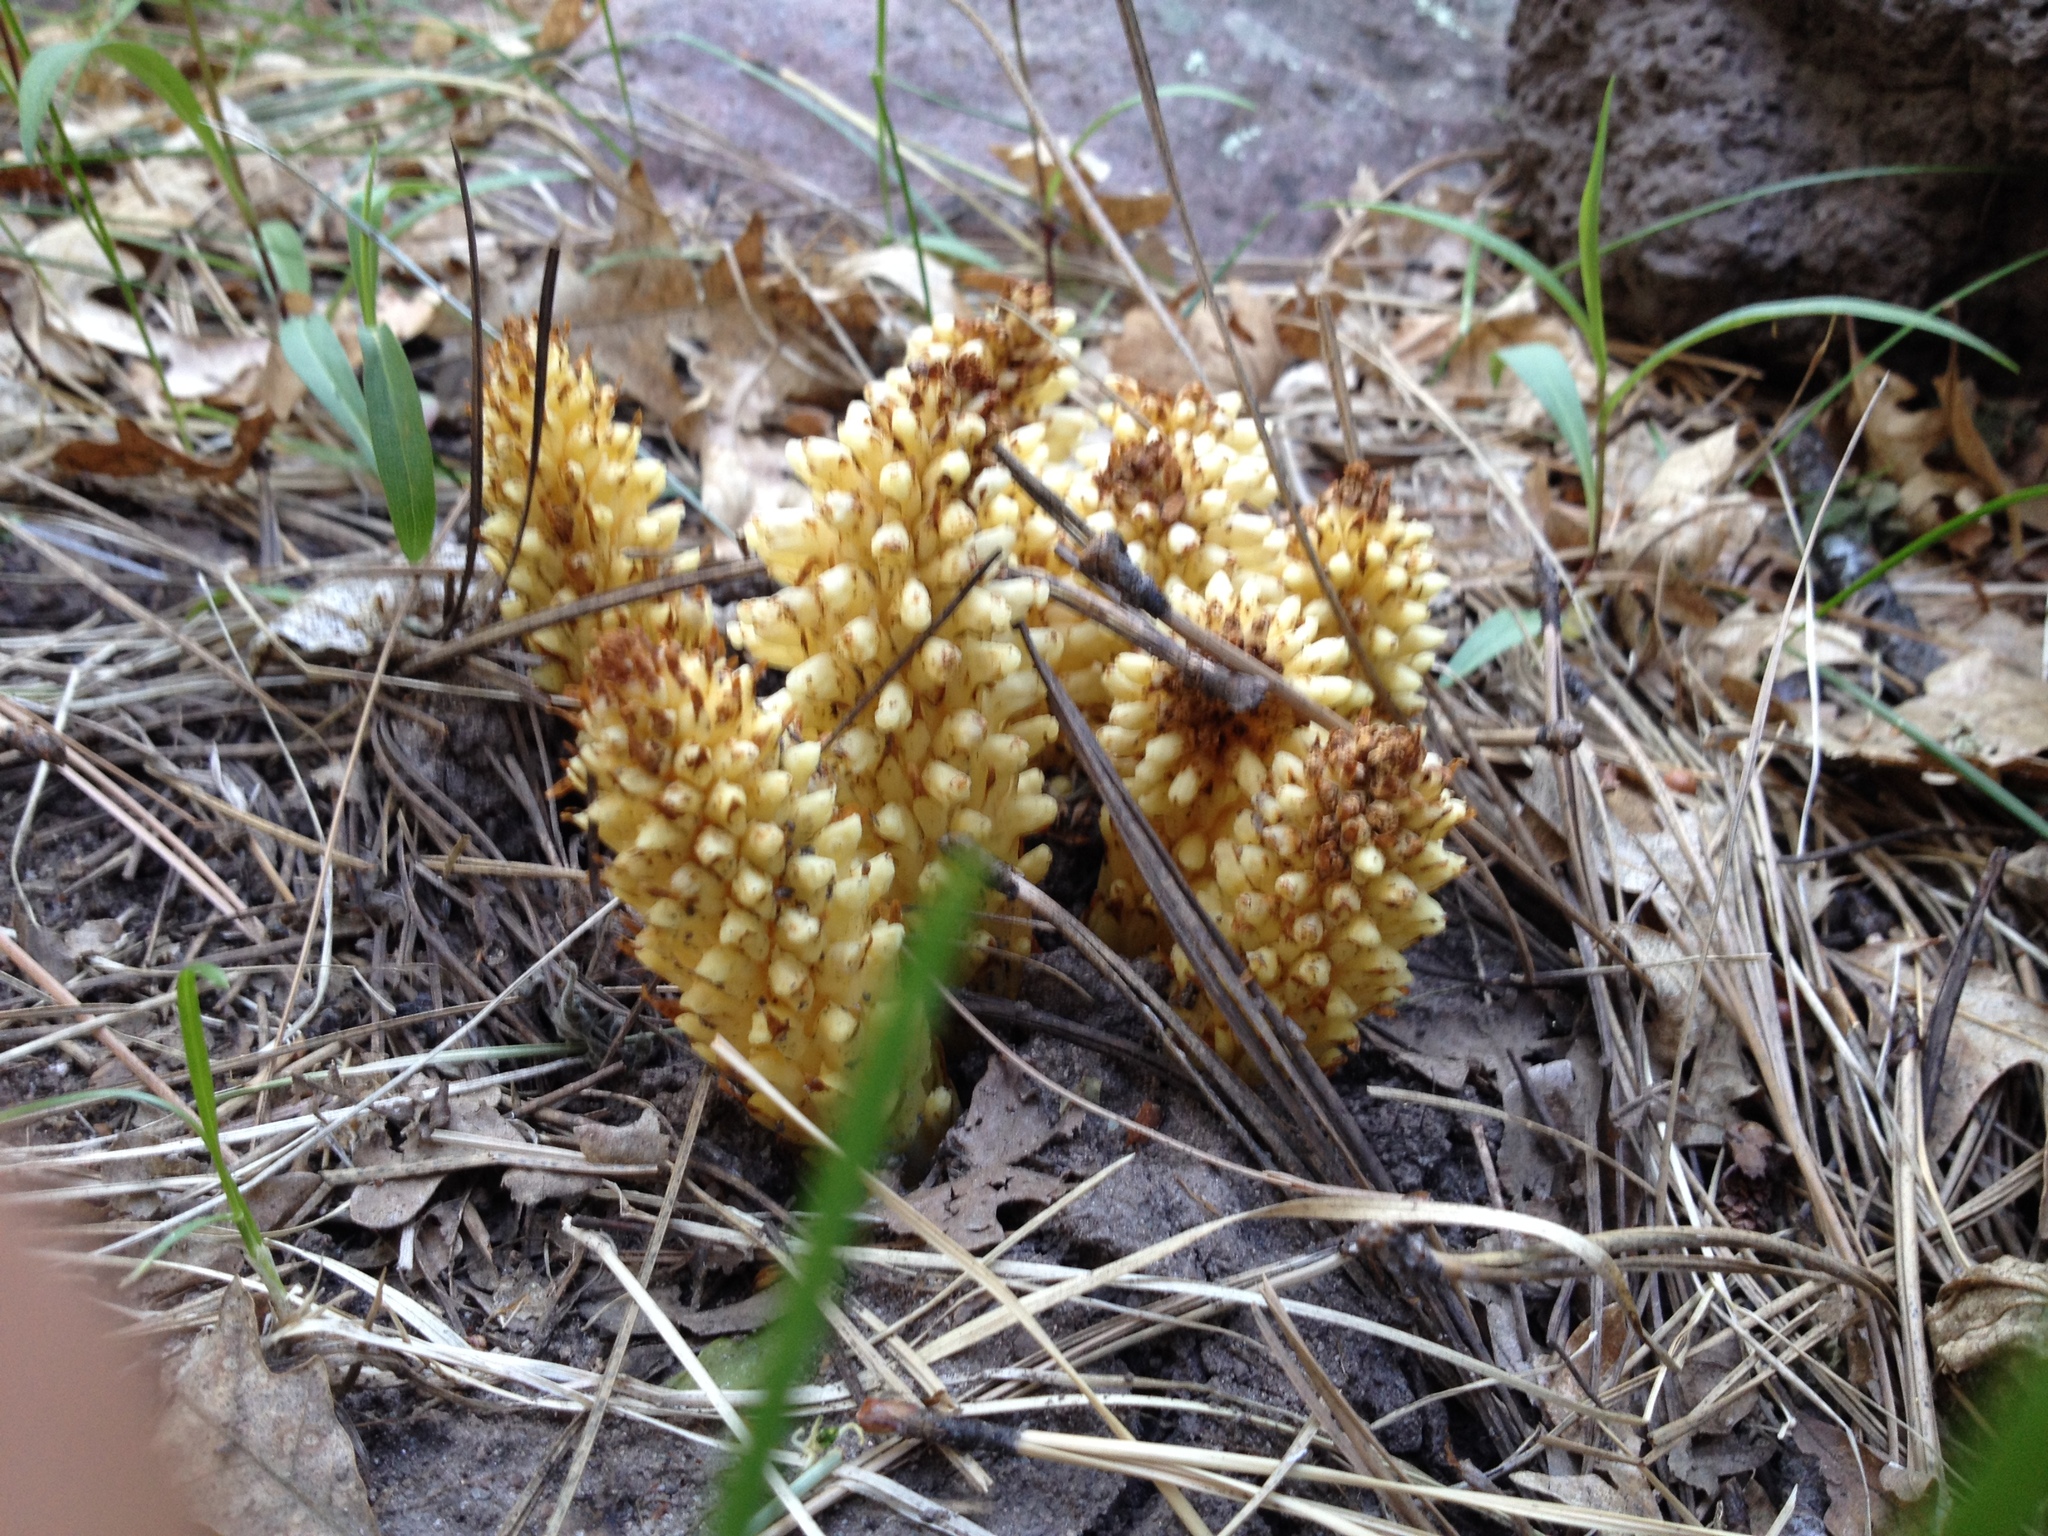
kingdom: Plantae
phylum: Tracheophyta
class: Magnoliopsida
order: Lamiales
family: Orobanchaceae
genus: Conopholis
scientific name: Conopholis alpina
